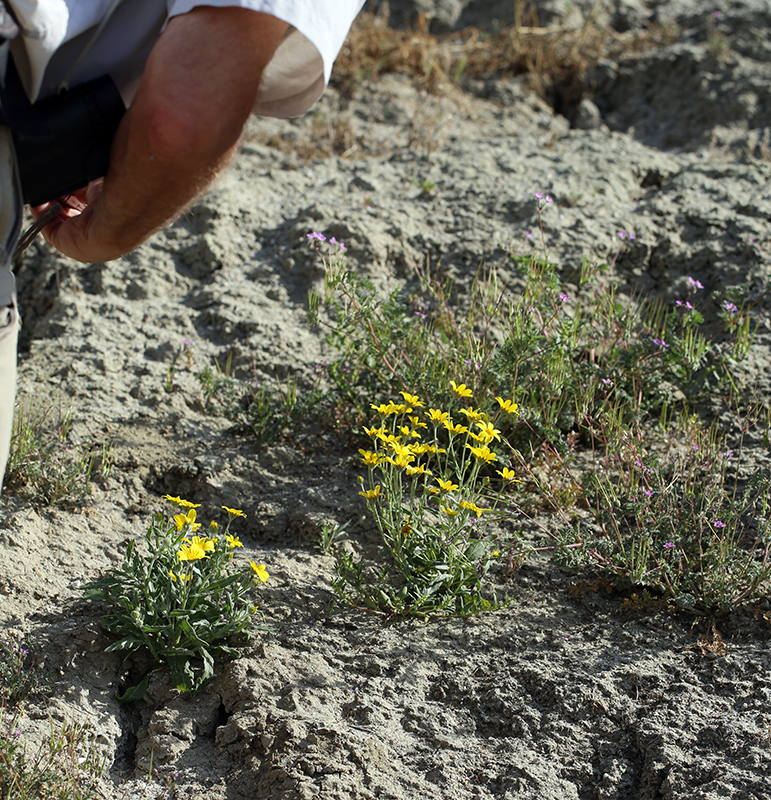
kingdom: Plantae
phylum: Tracheophyta
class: Magnoliopsida
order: Asterales
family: Asteraceae
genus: Monolopia
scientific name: Monolopia stricta
